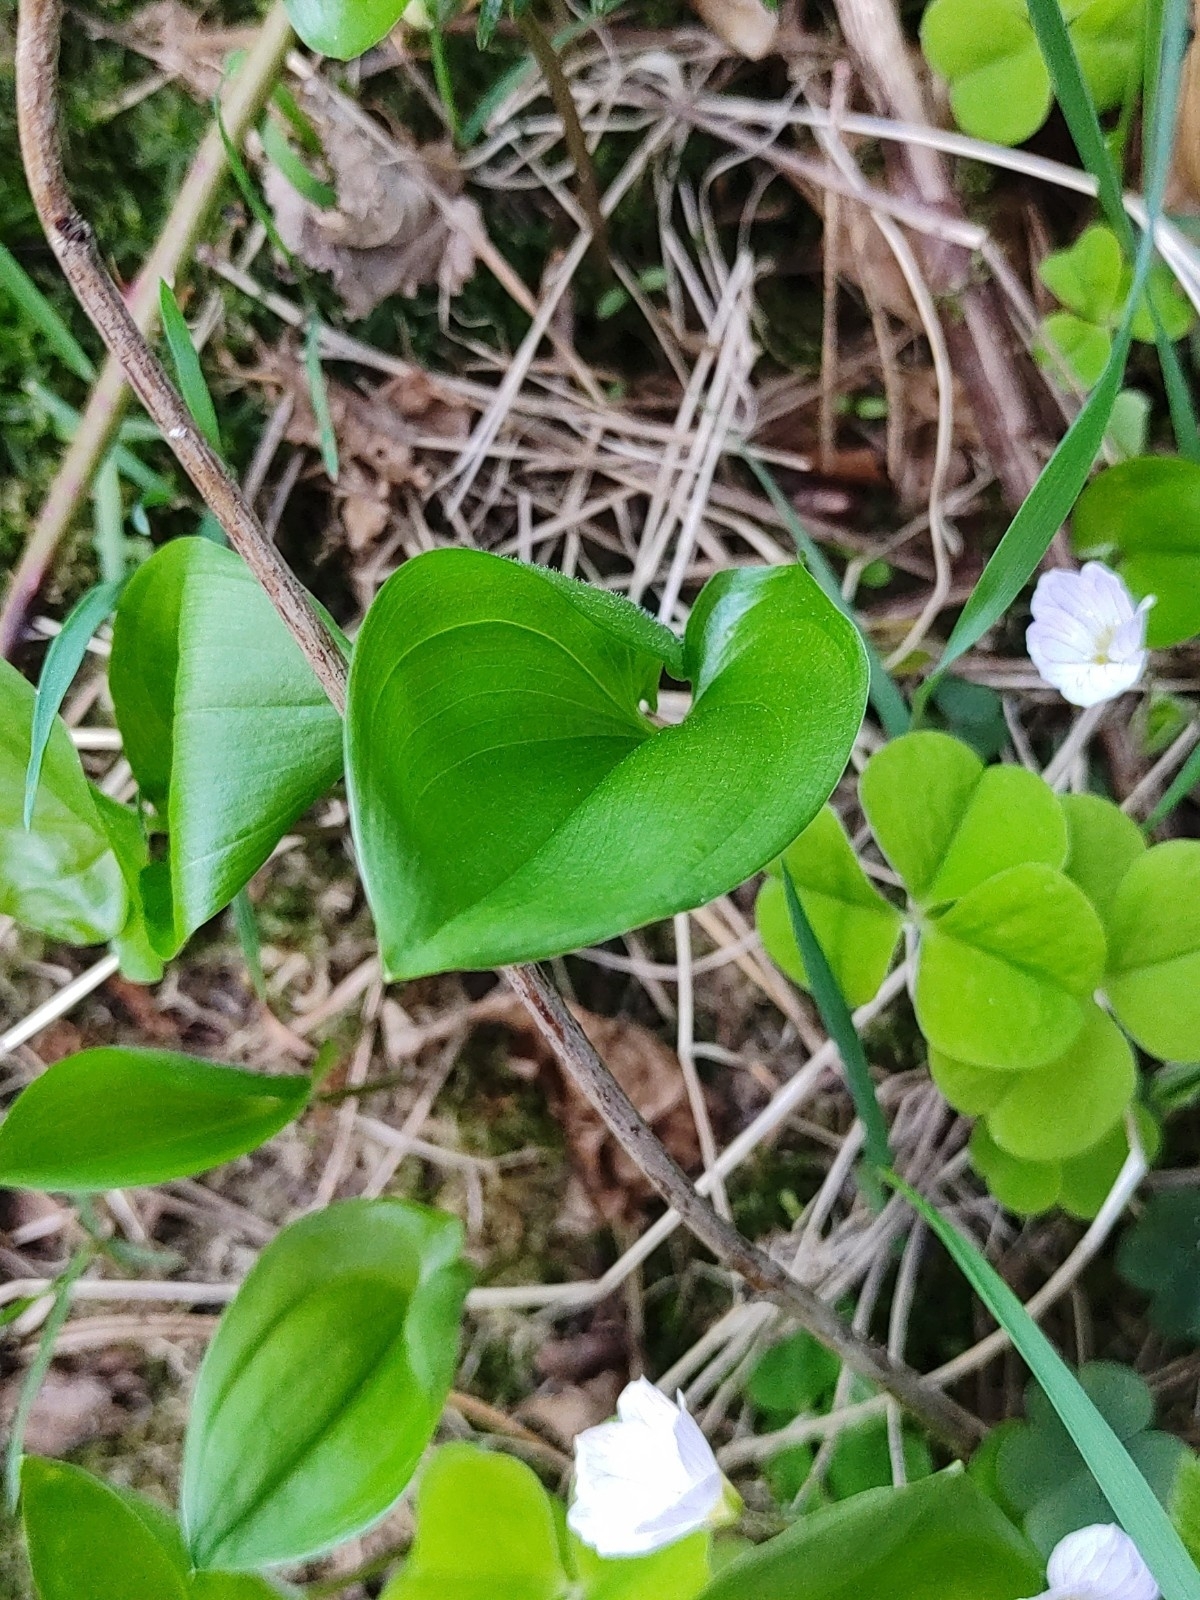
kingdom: Plantae
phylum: Tracheophyta
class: Liliopsida
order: Asparagales
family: Asparagaceae
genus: Maianthemum
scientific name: Maianthemum bifolium
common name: May lily
